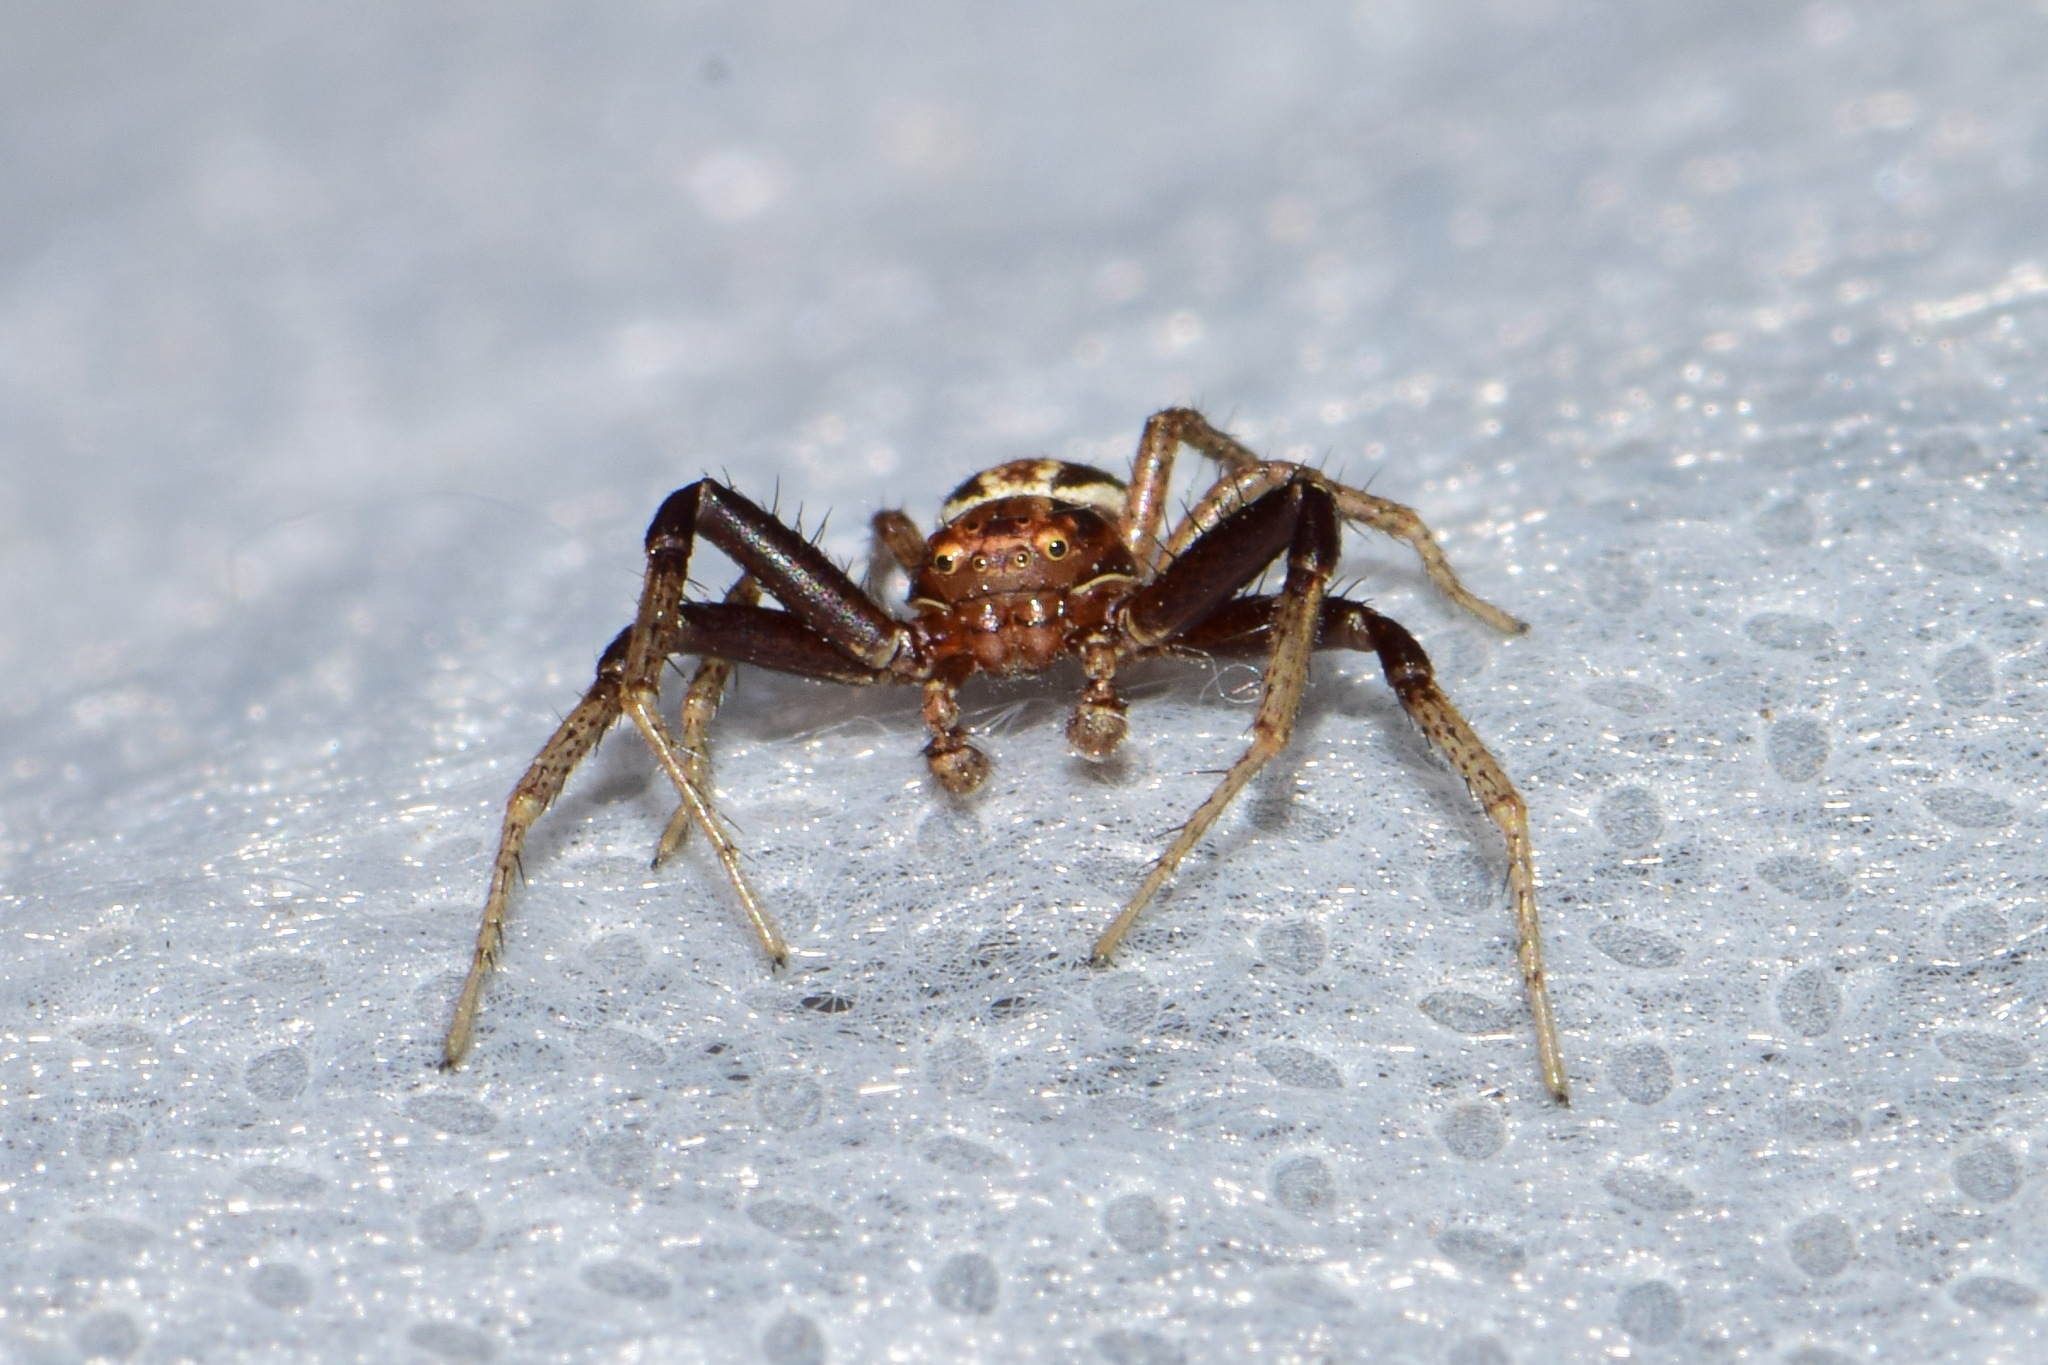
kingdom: Animalia
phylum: Arthropoda
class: Arachnida
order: Araneae
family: Thomisidae
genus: Xysticus
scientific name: Xysticus ulmi
